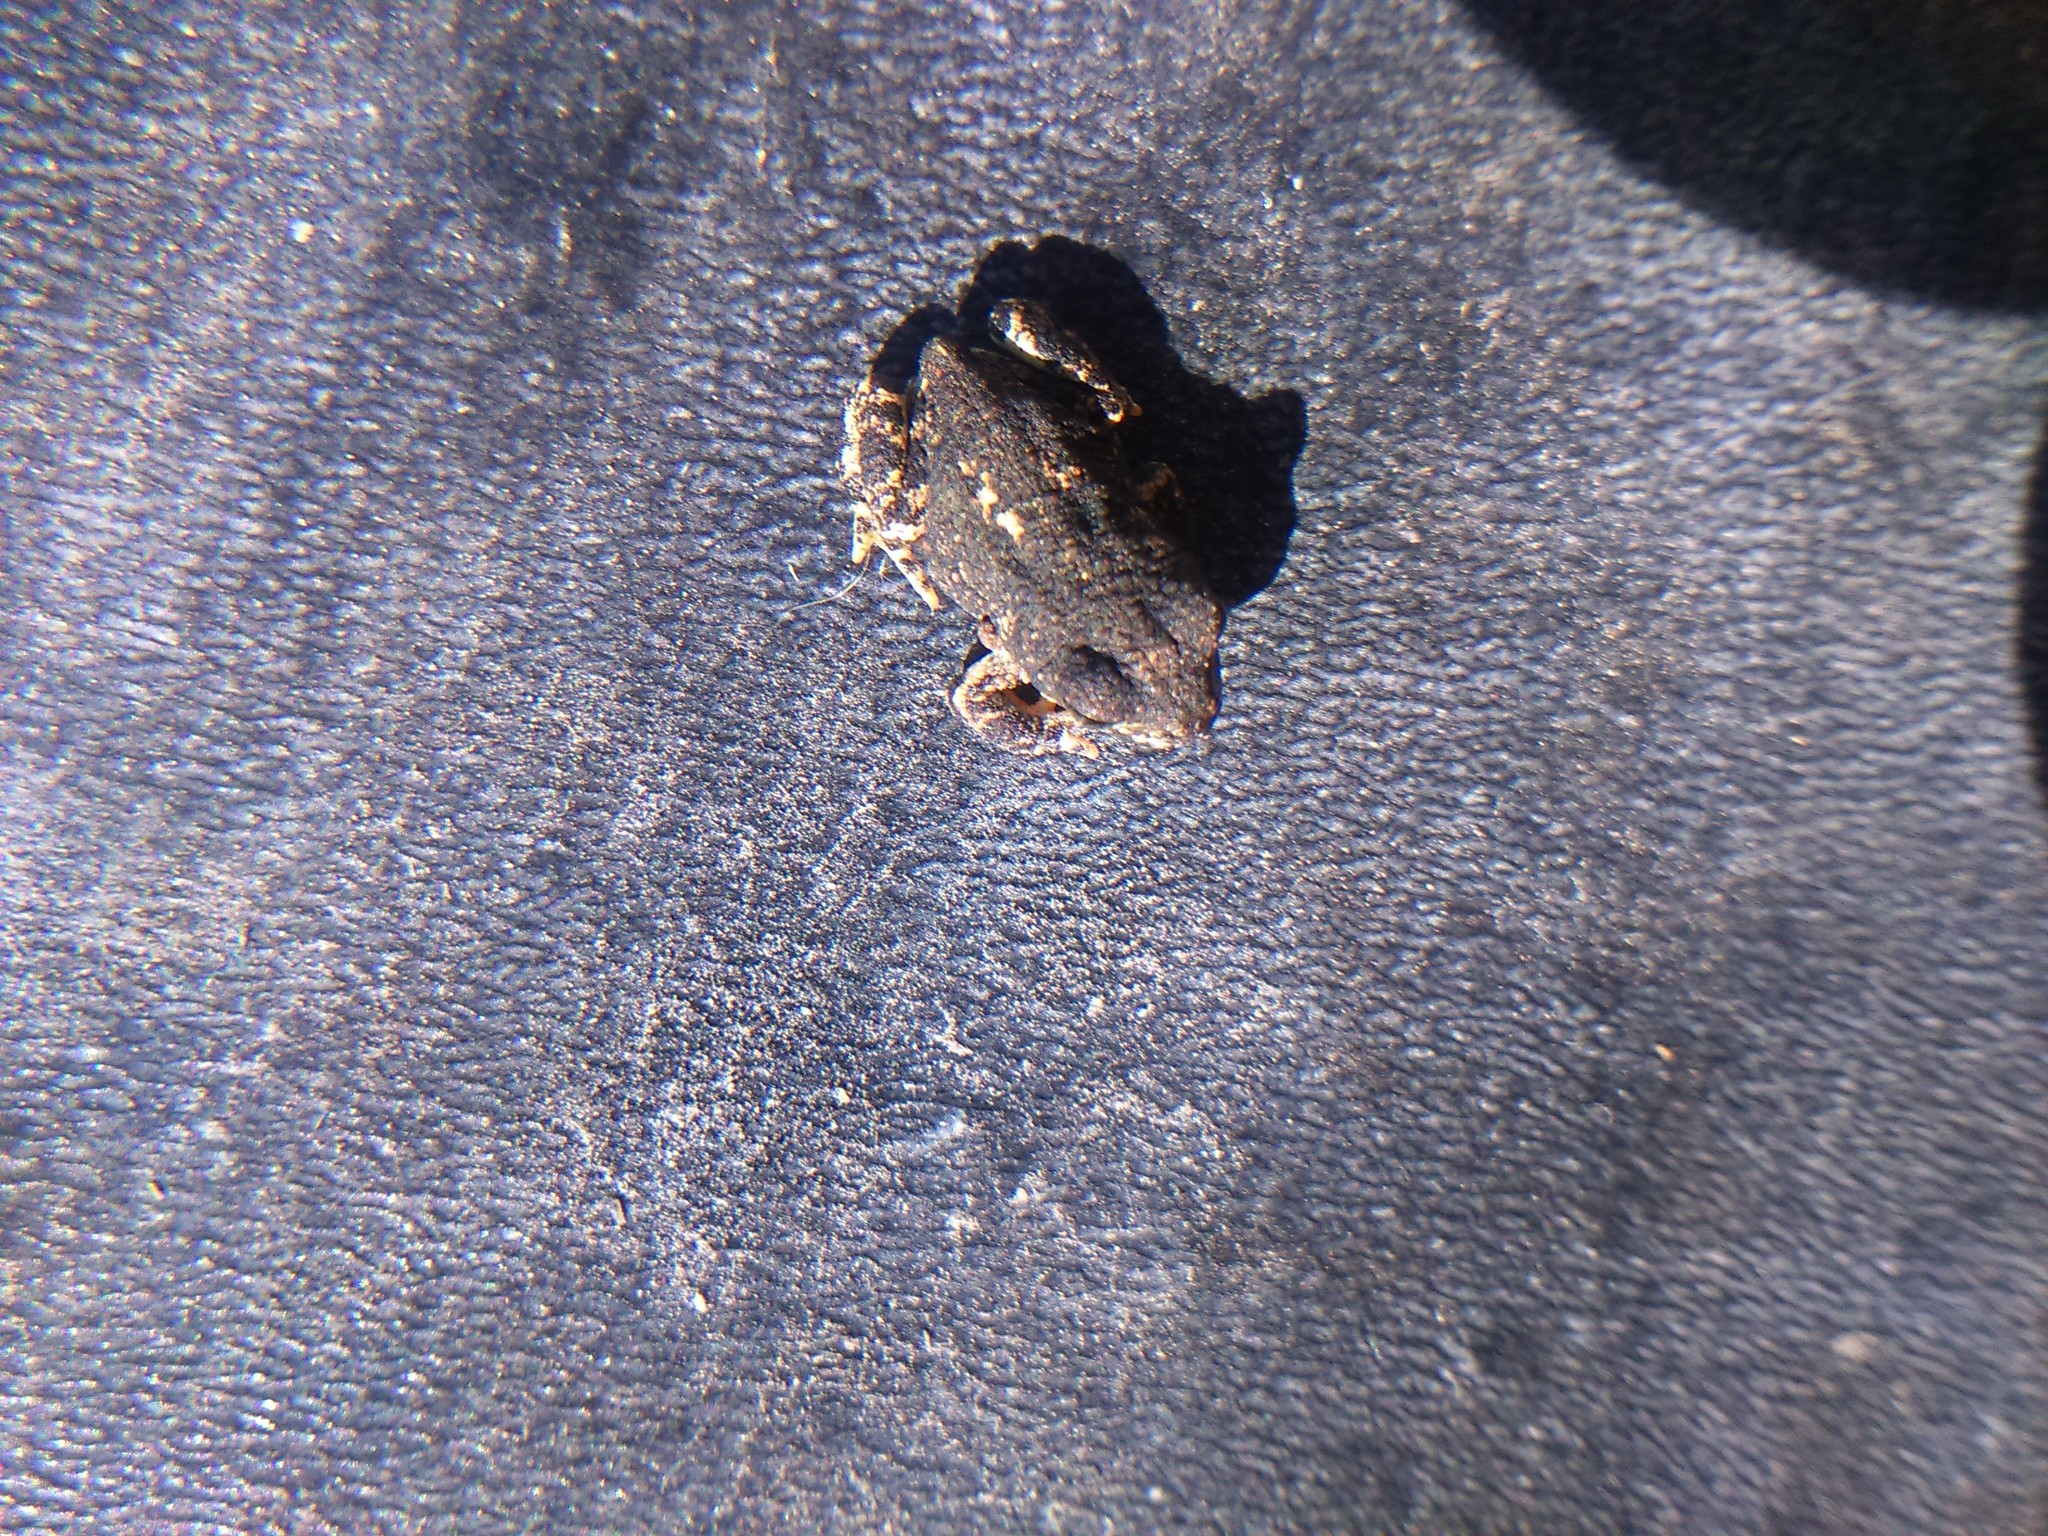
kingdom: Animalia
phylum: Chordata
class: Amphibia
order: Anura
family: Bufonidae
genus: Rhinella
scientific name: Rhinella spinulosa
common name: Warty toad
